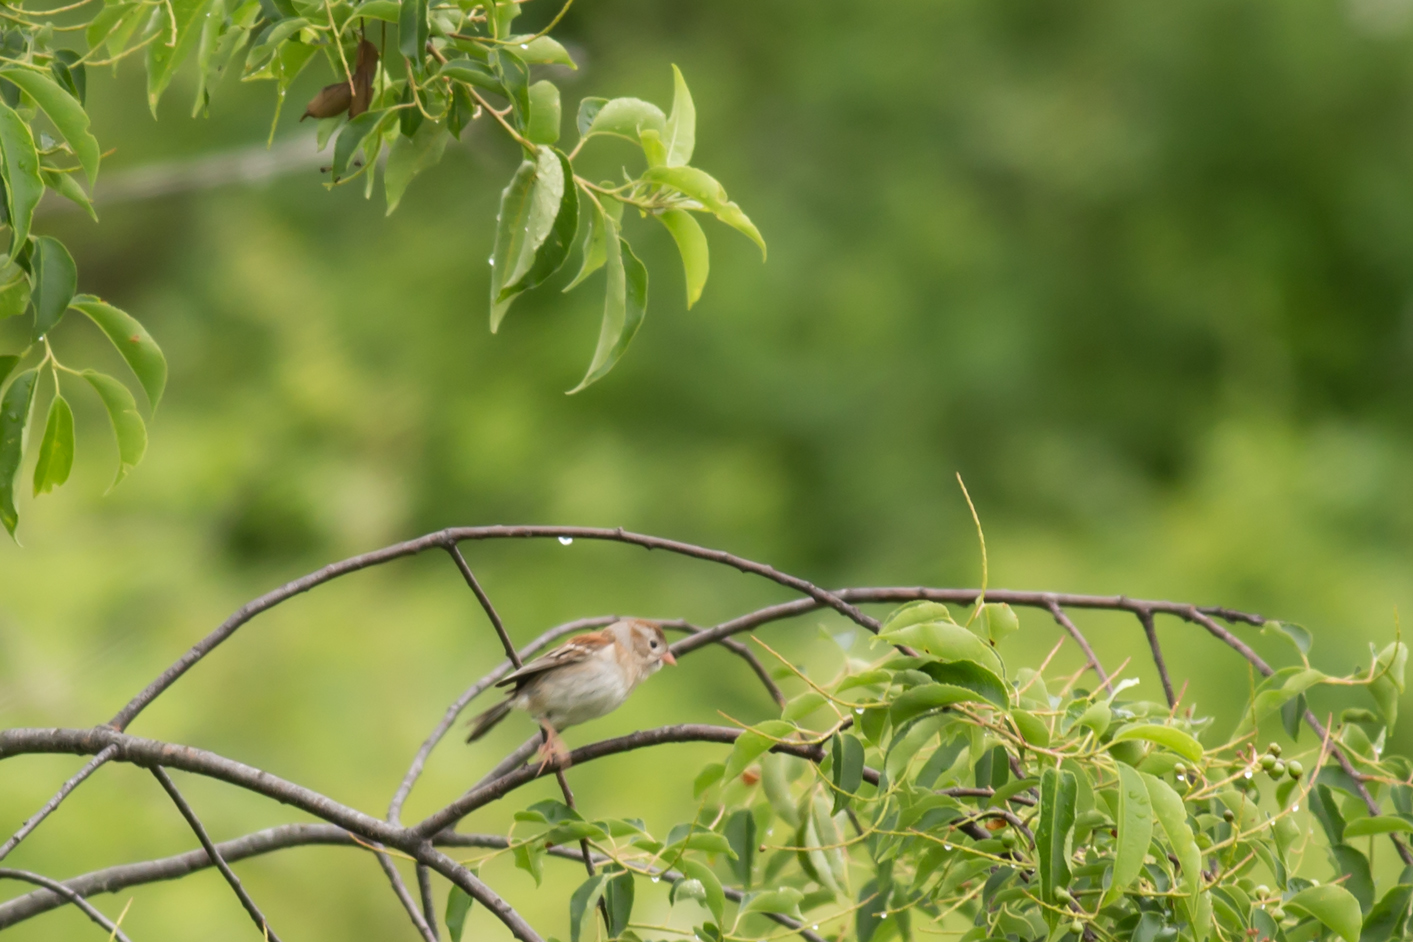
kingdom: Animalia
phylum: Chordata
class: Aves
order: Passeriformes
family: Passerellidae
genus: Spizella
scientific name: Spizella pusilla
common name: Field sparrow
